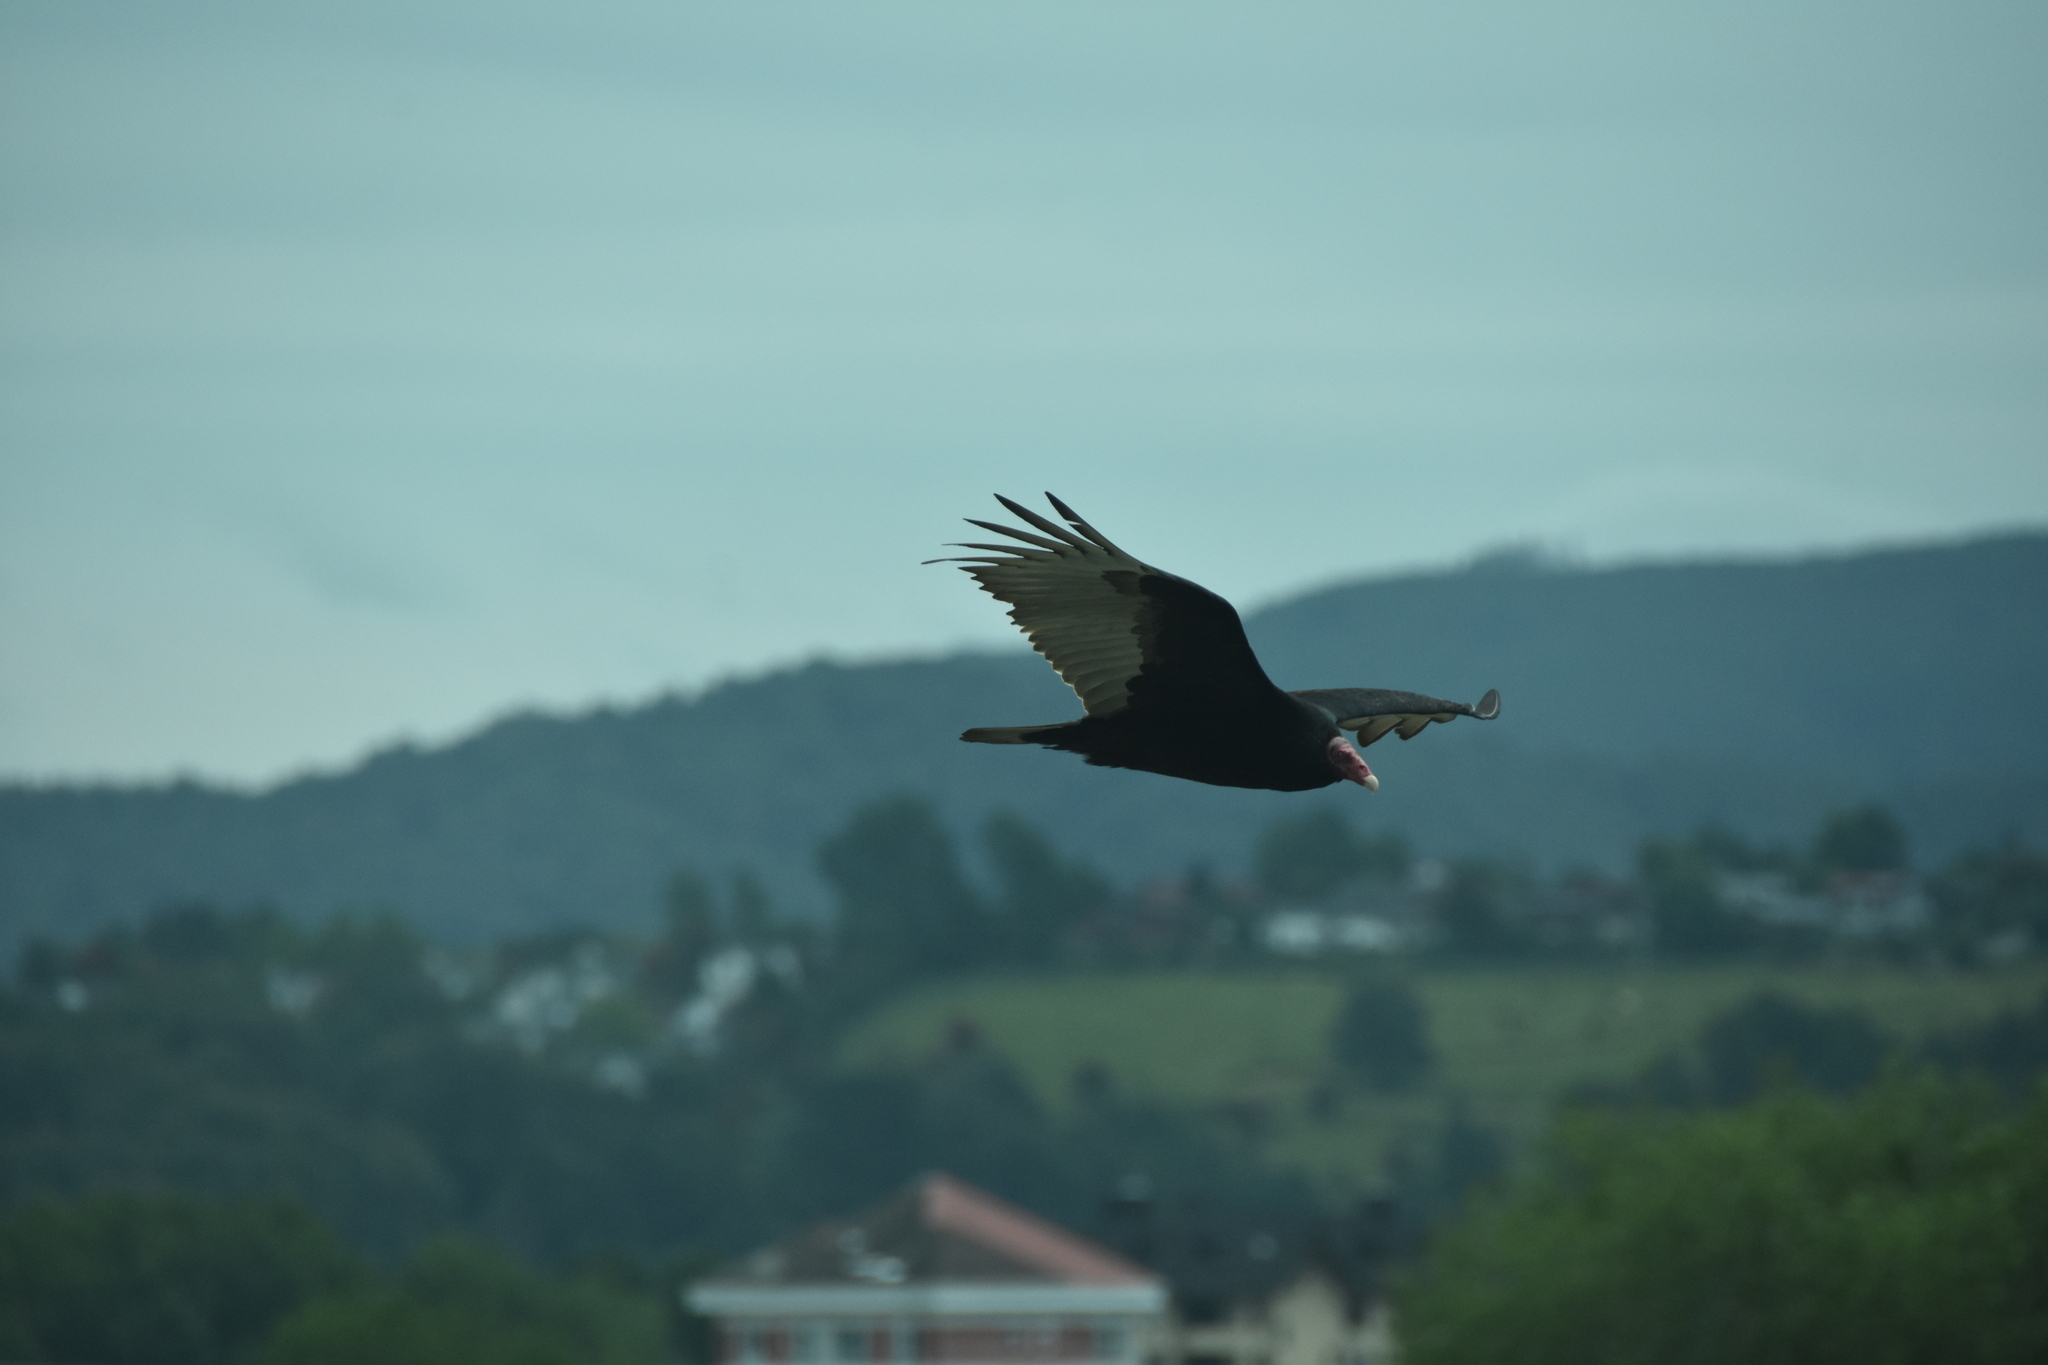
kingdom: Animalia
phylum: Chordata
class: Aves
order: Accipitriformes
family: Cathartidae
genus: Cathartes
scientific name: Cathartes aura
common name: Turkey vulture
